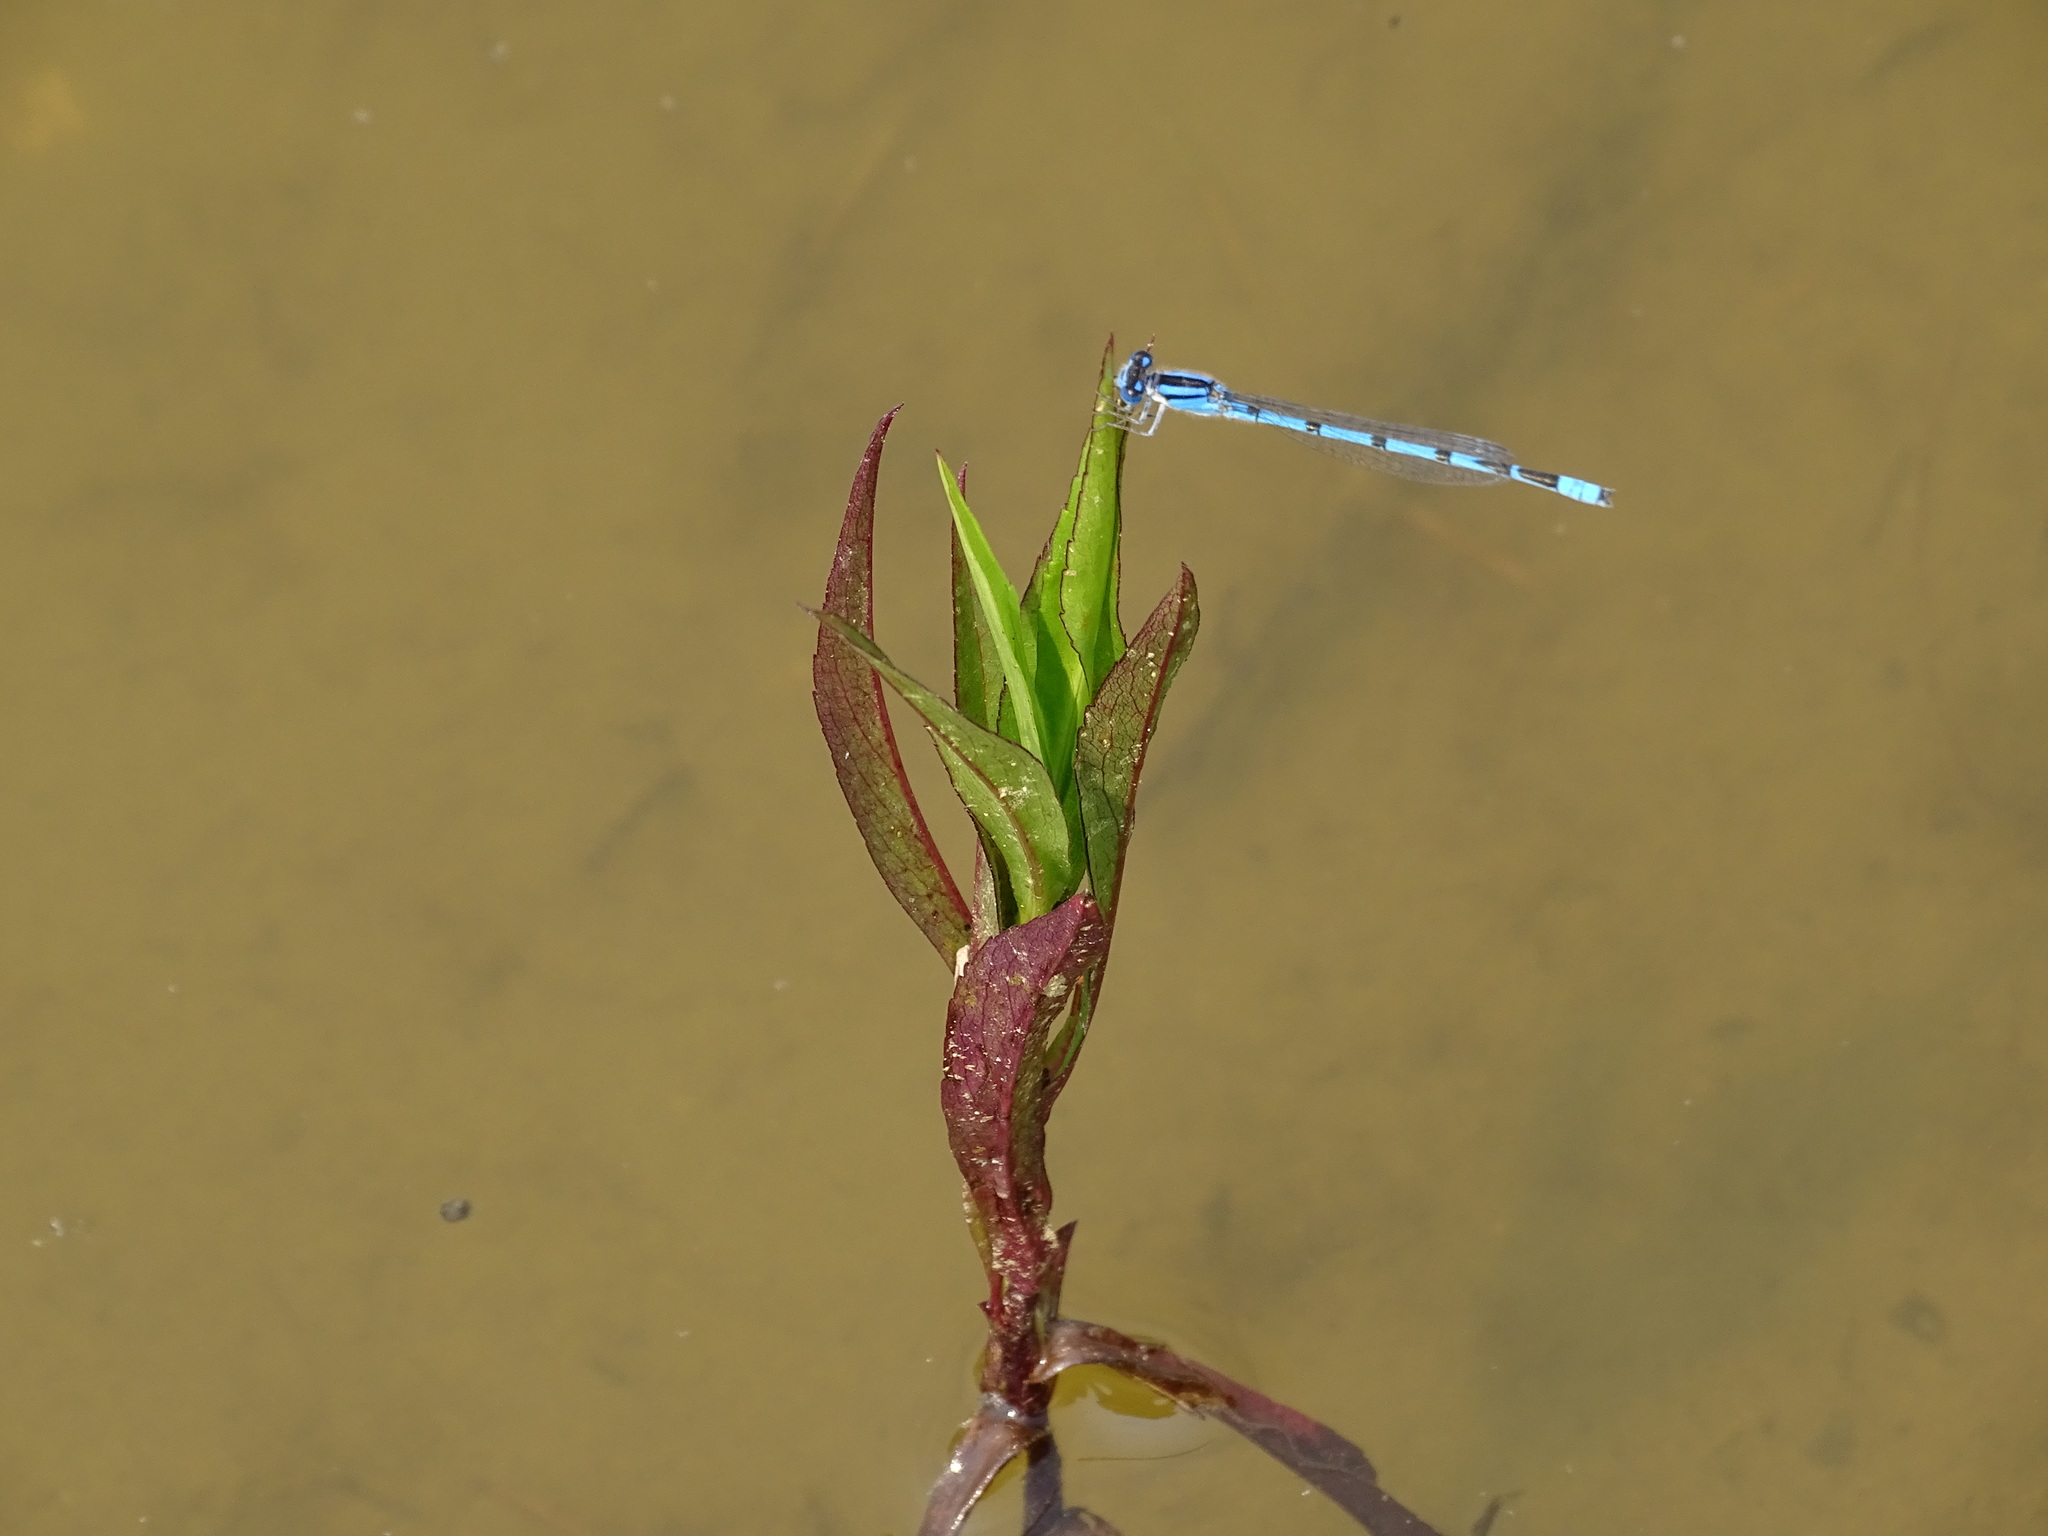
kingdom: Animalia
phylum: Arthropoda
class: Insecta
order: Odonata
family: Coenagrionidae
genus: Enallagma
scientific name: Enallagma civile
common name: Damselfly
